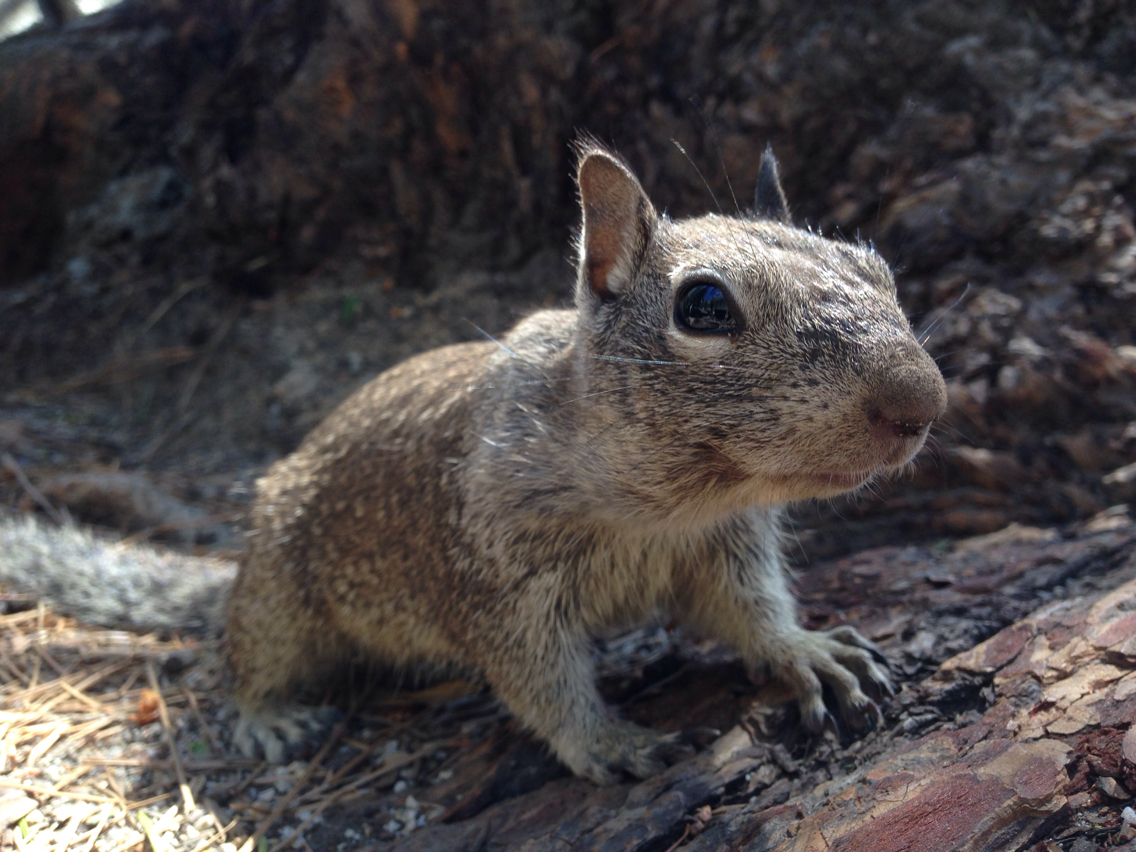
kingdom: Animalia
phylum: Chordata
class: Mammalia
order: Rodentia
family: Sciuridae
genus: Otospermophilus
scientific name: Otospermophilus beecheyi
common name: California ground squirrel
